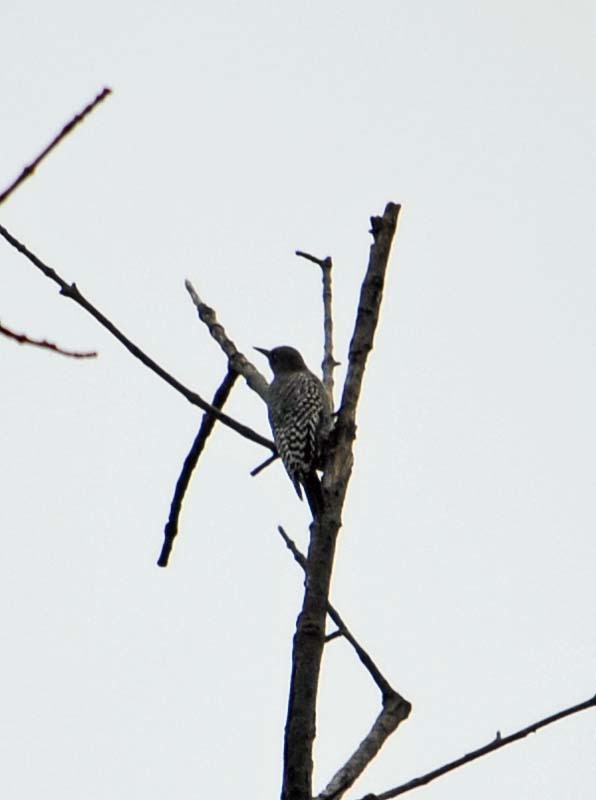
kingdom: Animalia
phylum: Chordata
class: Aves
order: Piciformes
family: Picidae
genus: Melanerpes
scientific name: Melanerpes hypopolius
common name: Grey-breasted woodpecker
